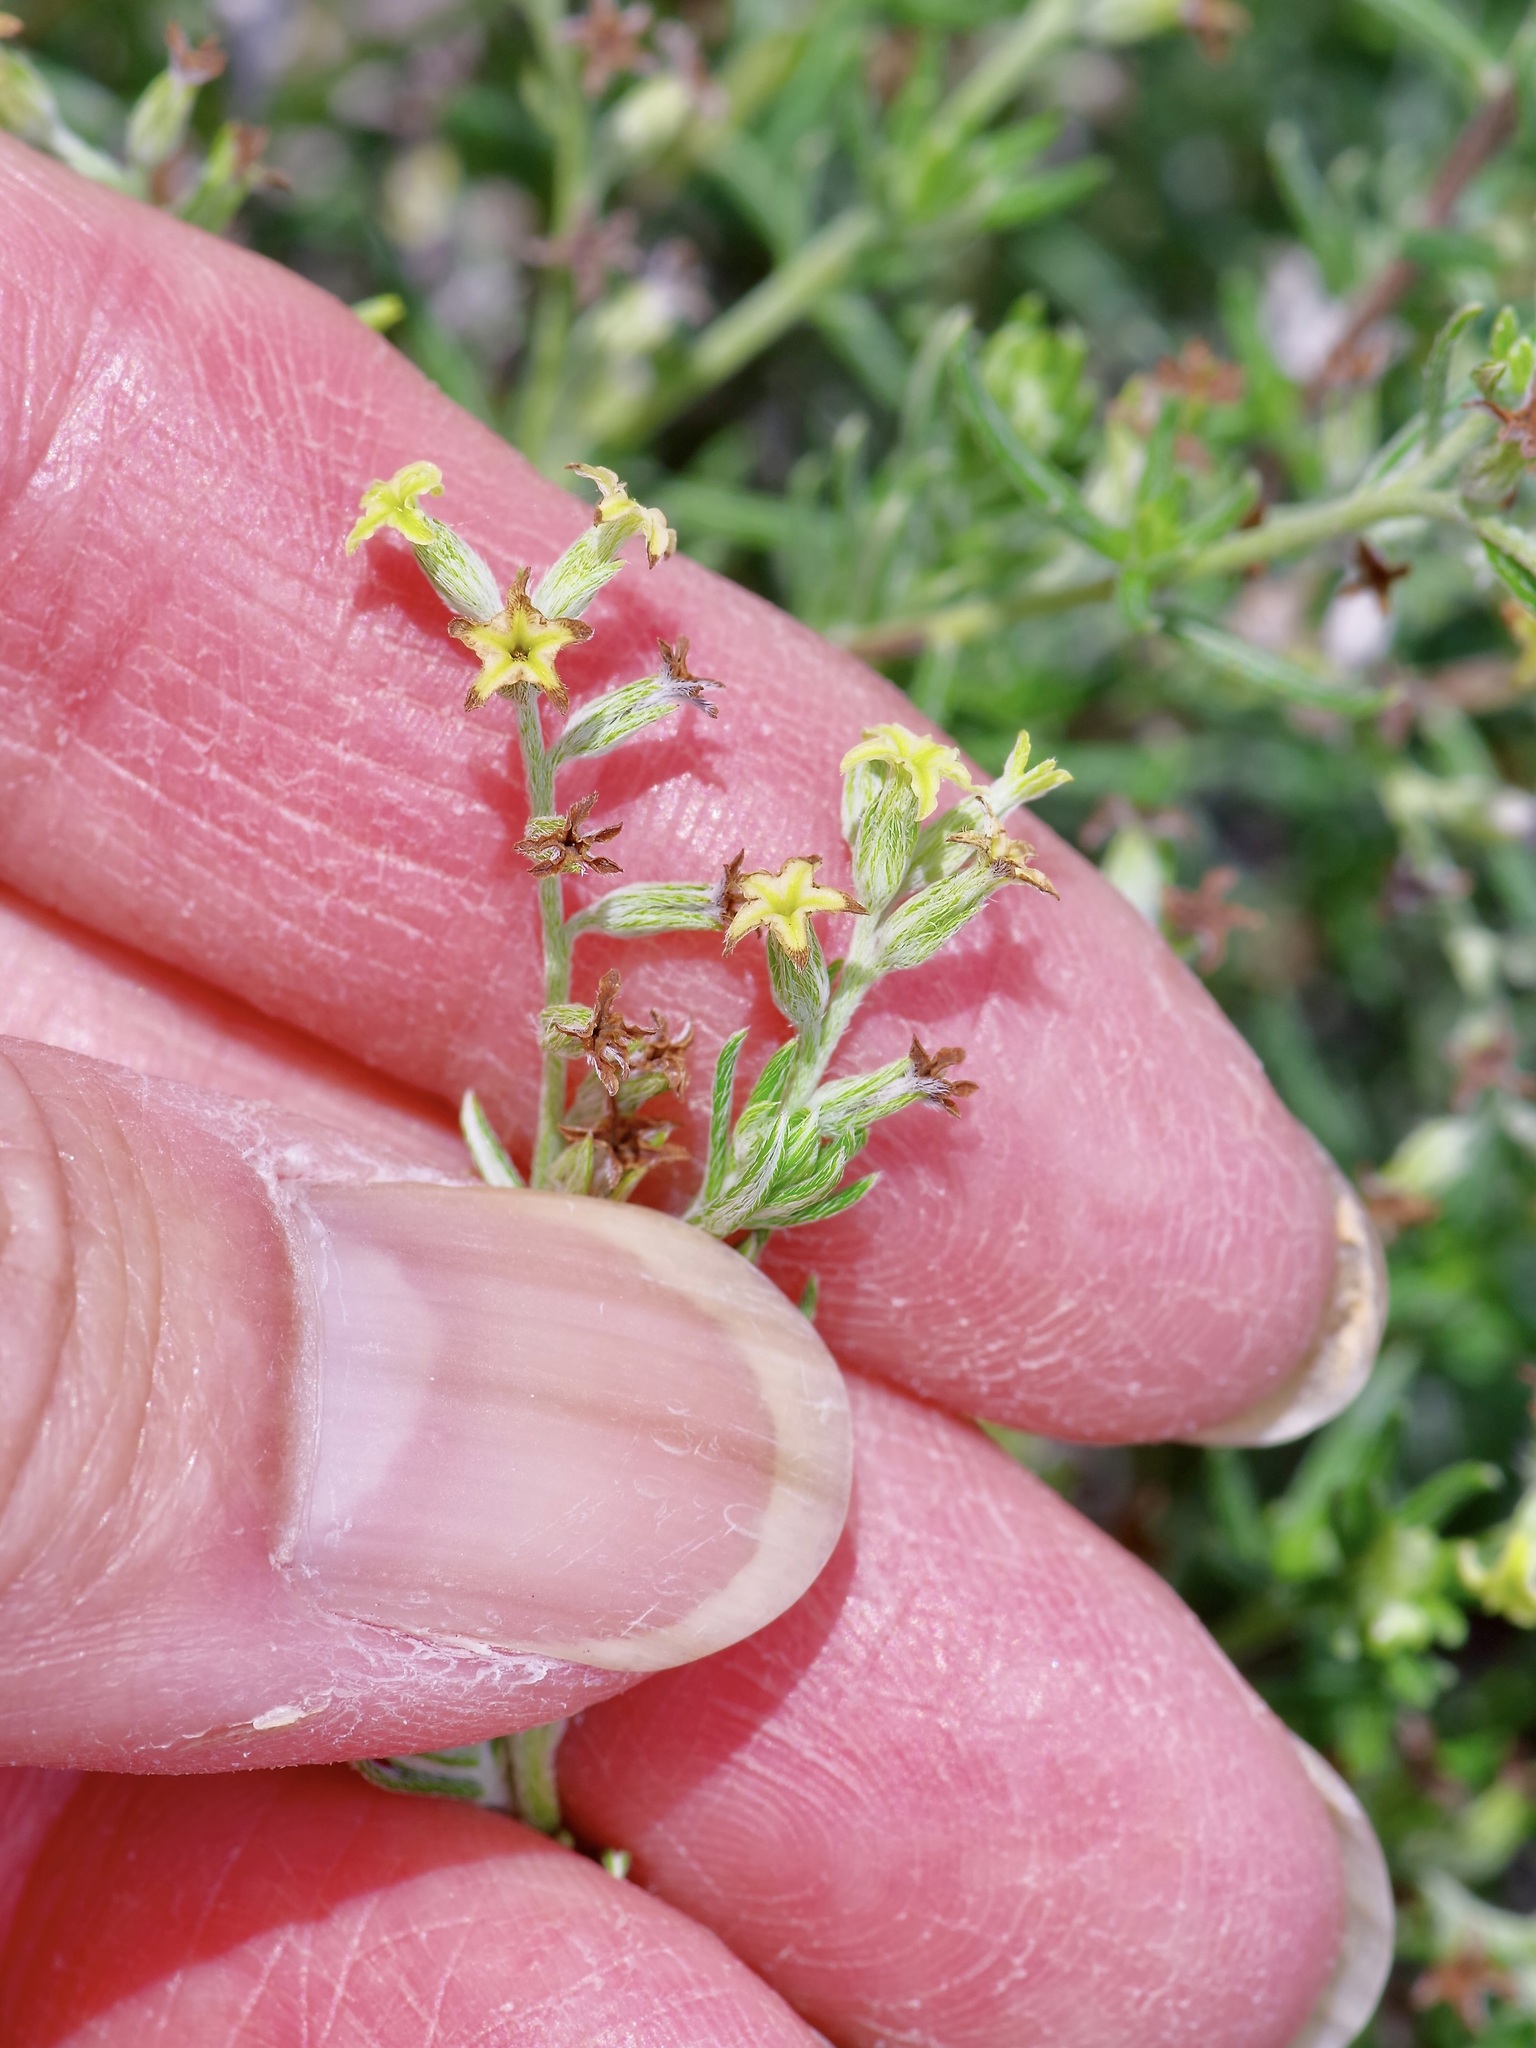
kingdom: Plantae
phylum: Tracheophyta
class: Magnoliopsida
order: Boraginales
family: Heliotropiaceae
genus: Euploca
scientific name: Euploca torreyi
